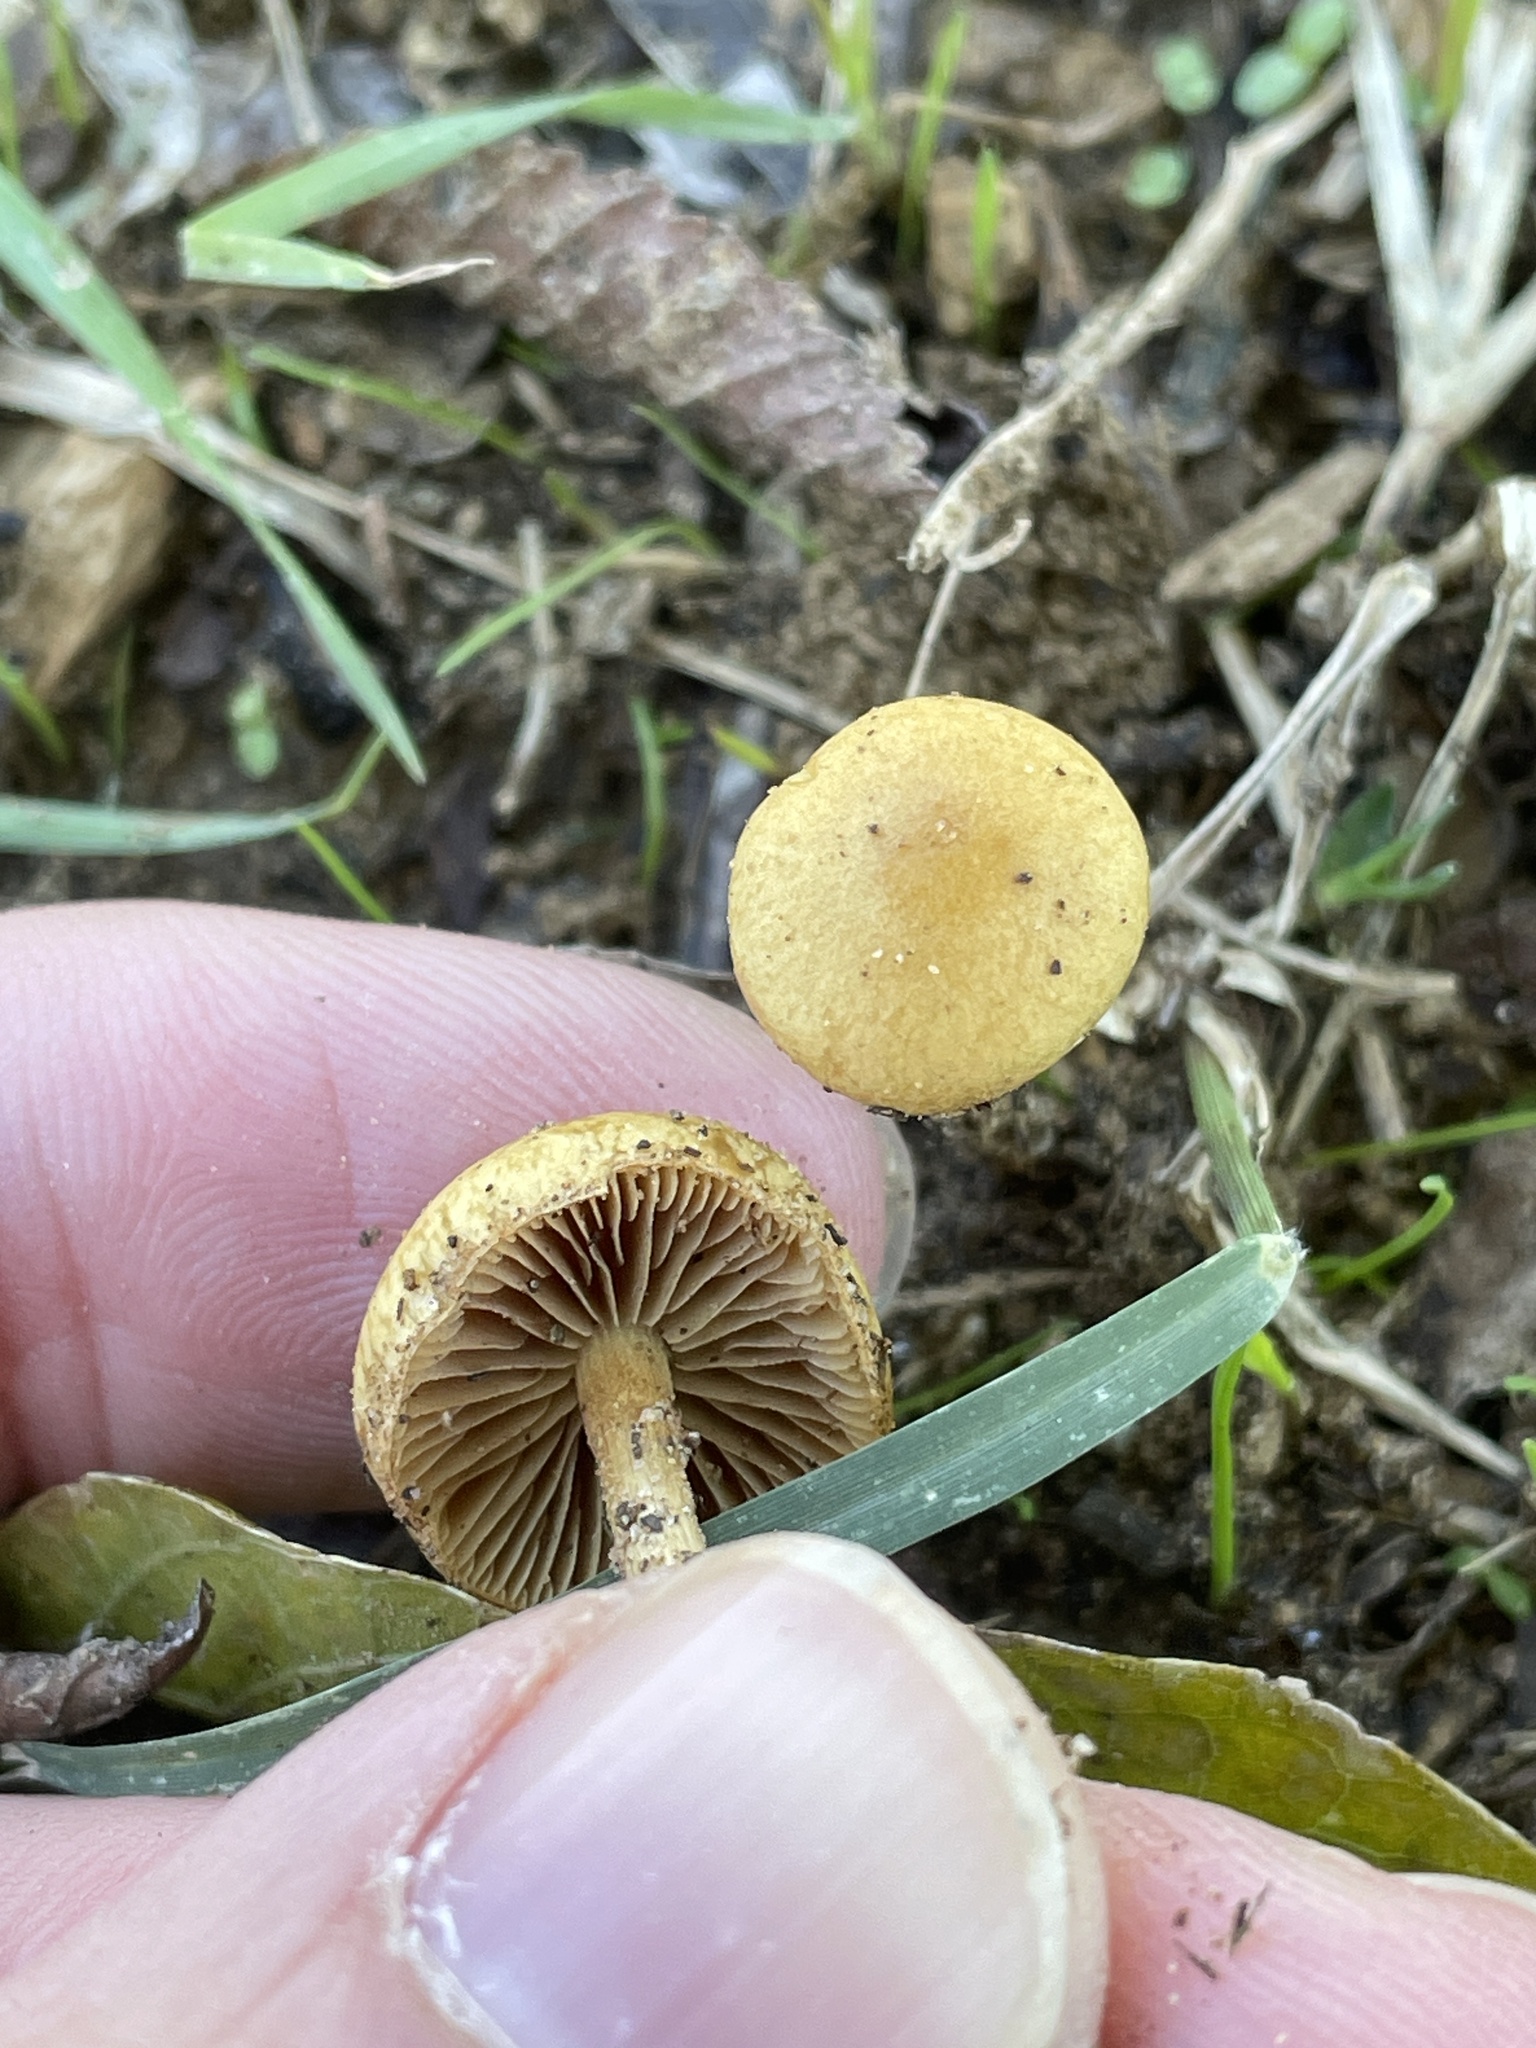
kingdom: Fungi
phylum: Basidiomycota
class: Agaricomycetes
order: Agaricales
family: Strophariaceae
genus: Agrocybe
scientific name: Agrocybe pediades
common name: Common fieldcap
